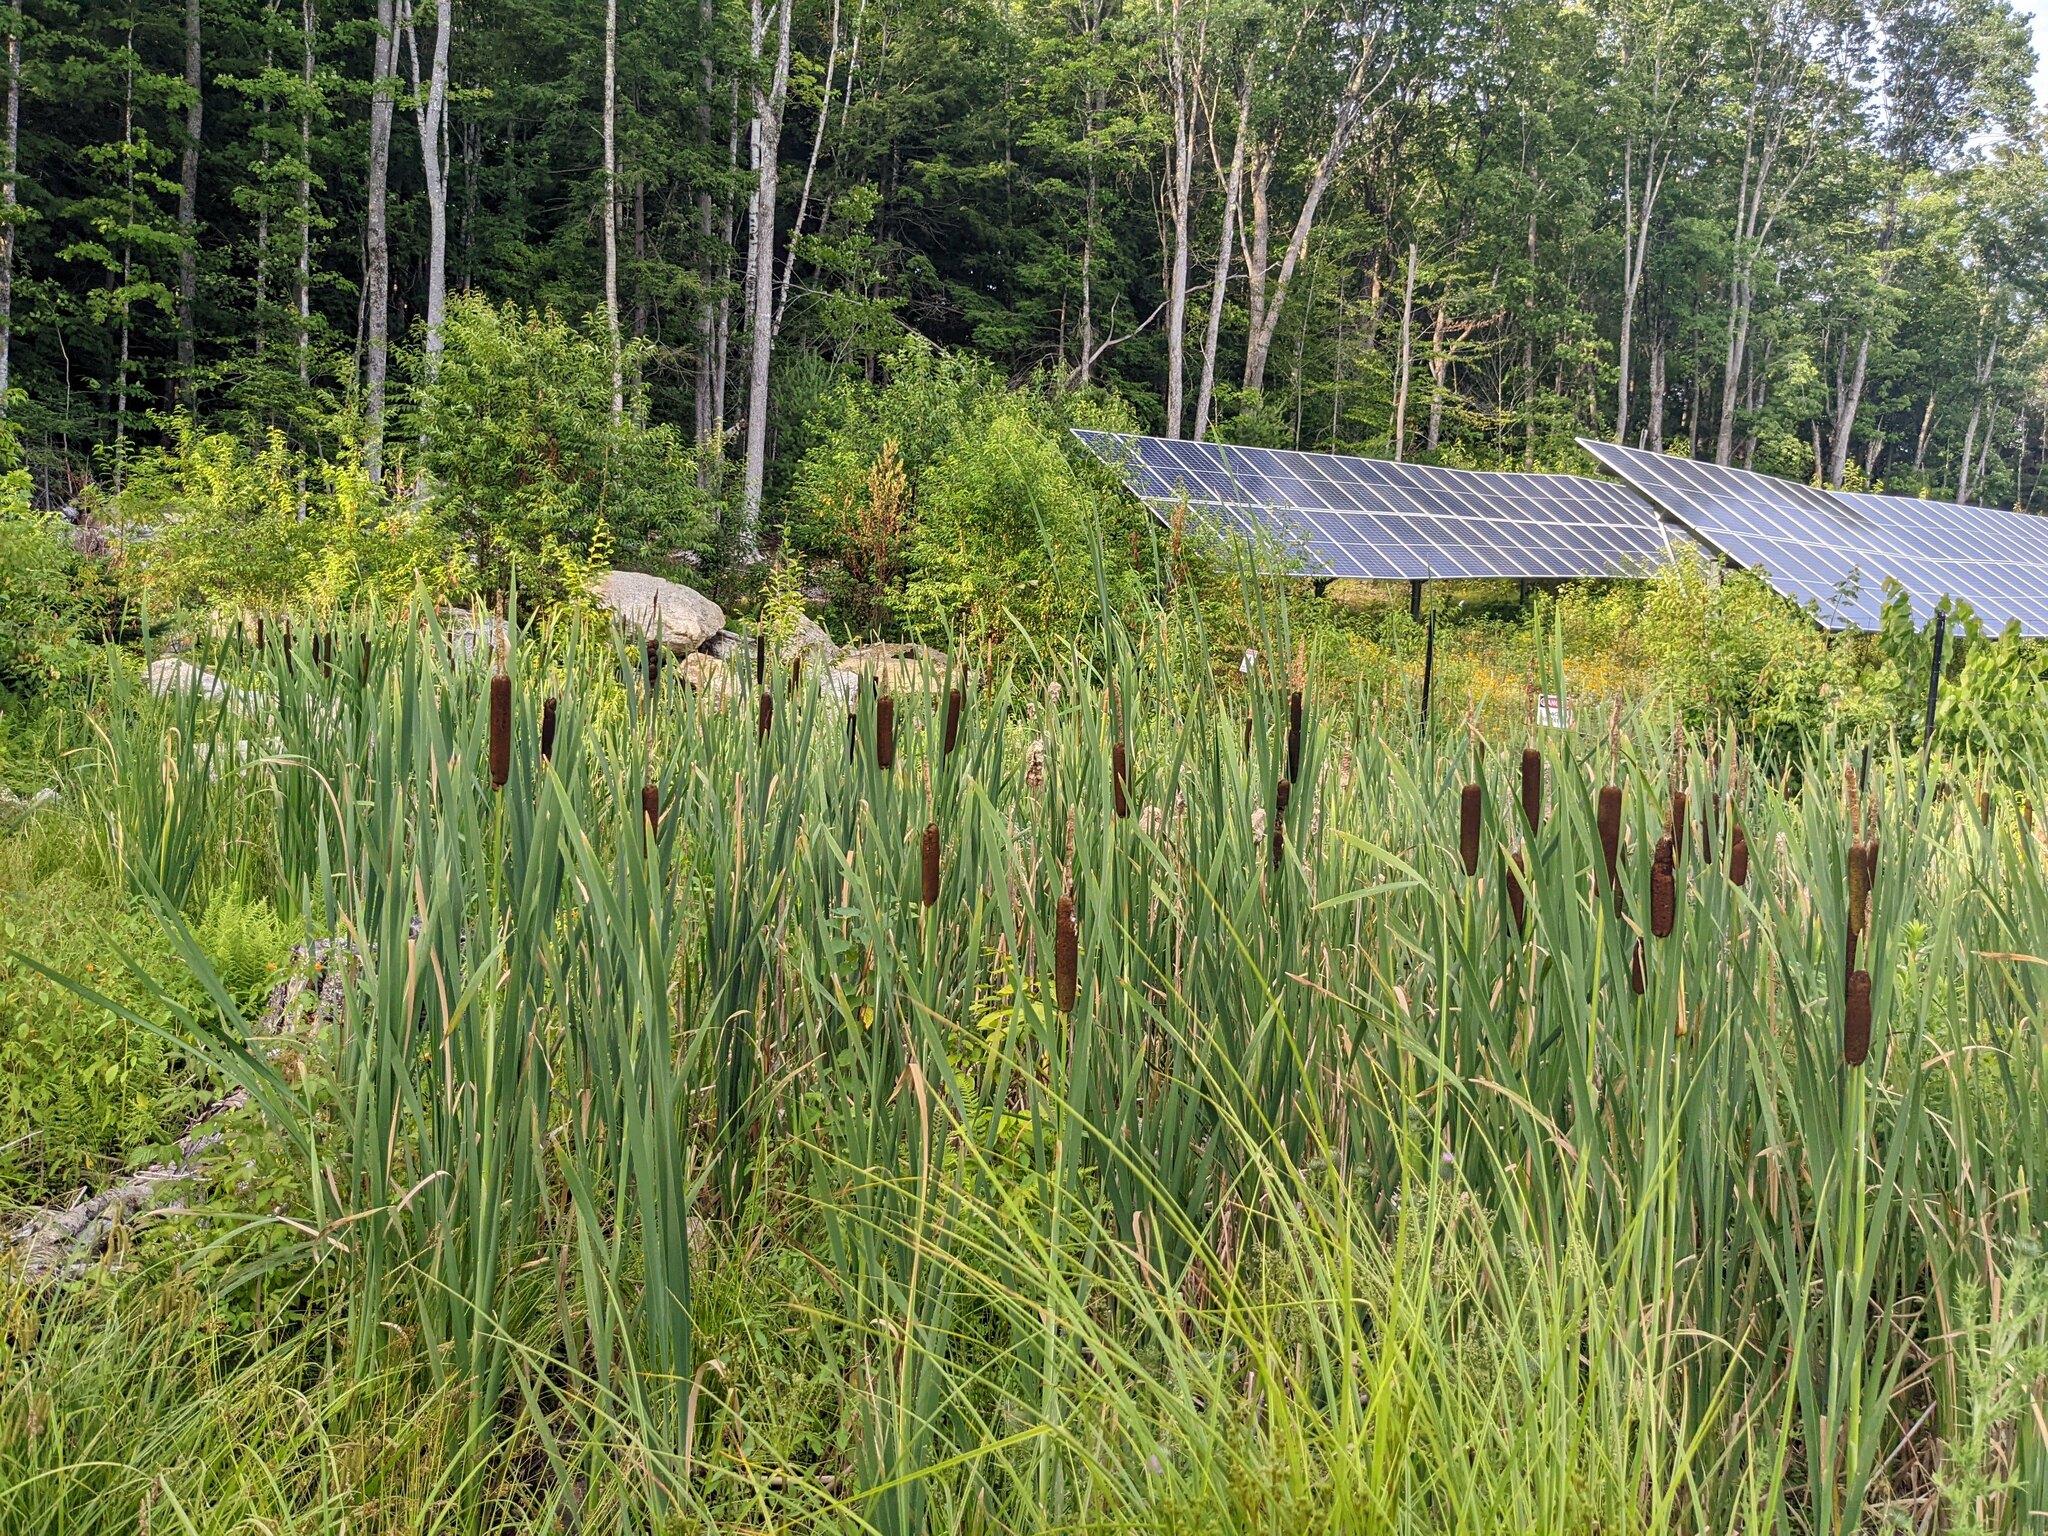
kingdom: Plantae
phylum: Tracheophyta
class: Liliopsida
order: Poales
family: Typhaceae
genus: Typha
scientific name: Typha latifolia
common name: Broadleaf cattail
